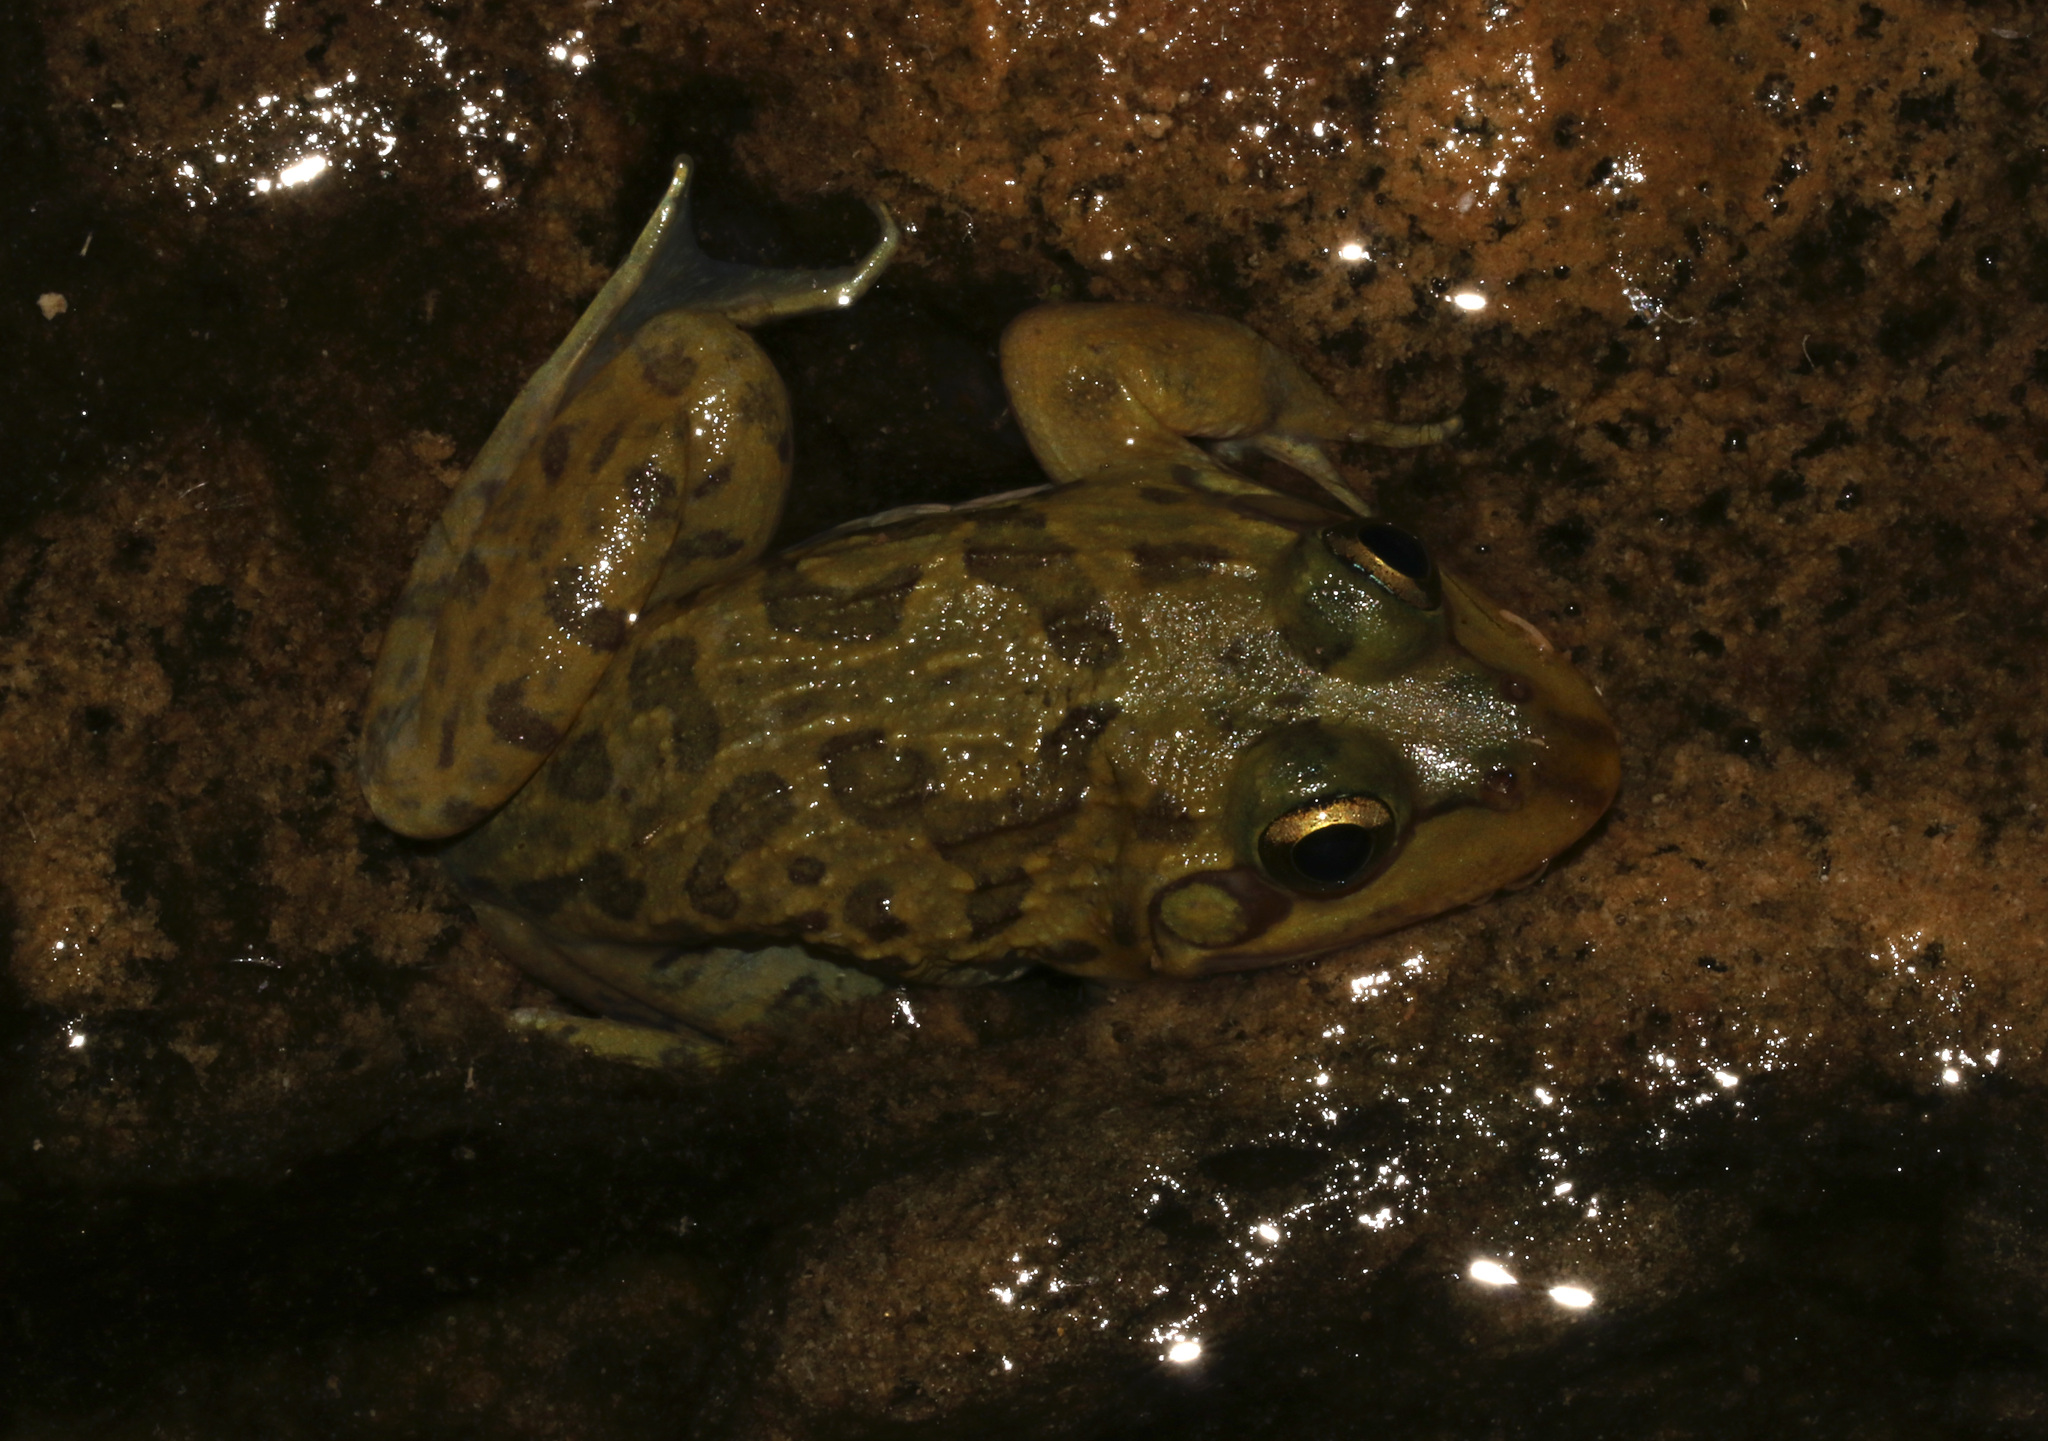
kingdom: Animalia
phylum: Chordata
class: Amphibia
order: Anura
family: Pyxicephalidae
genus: Amietia
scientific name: Amietia poyntoni
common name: Poynton's river frog
